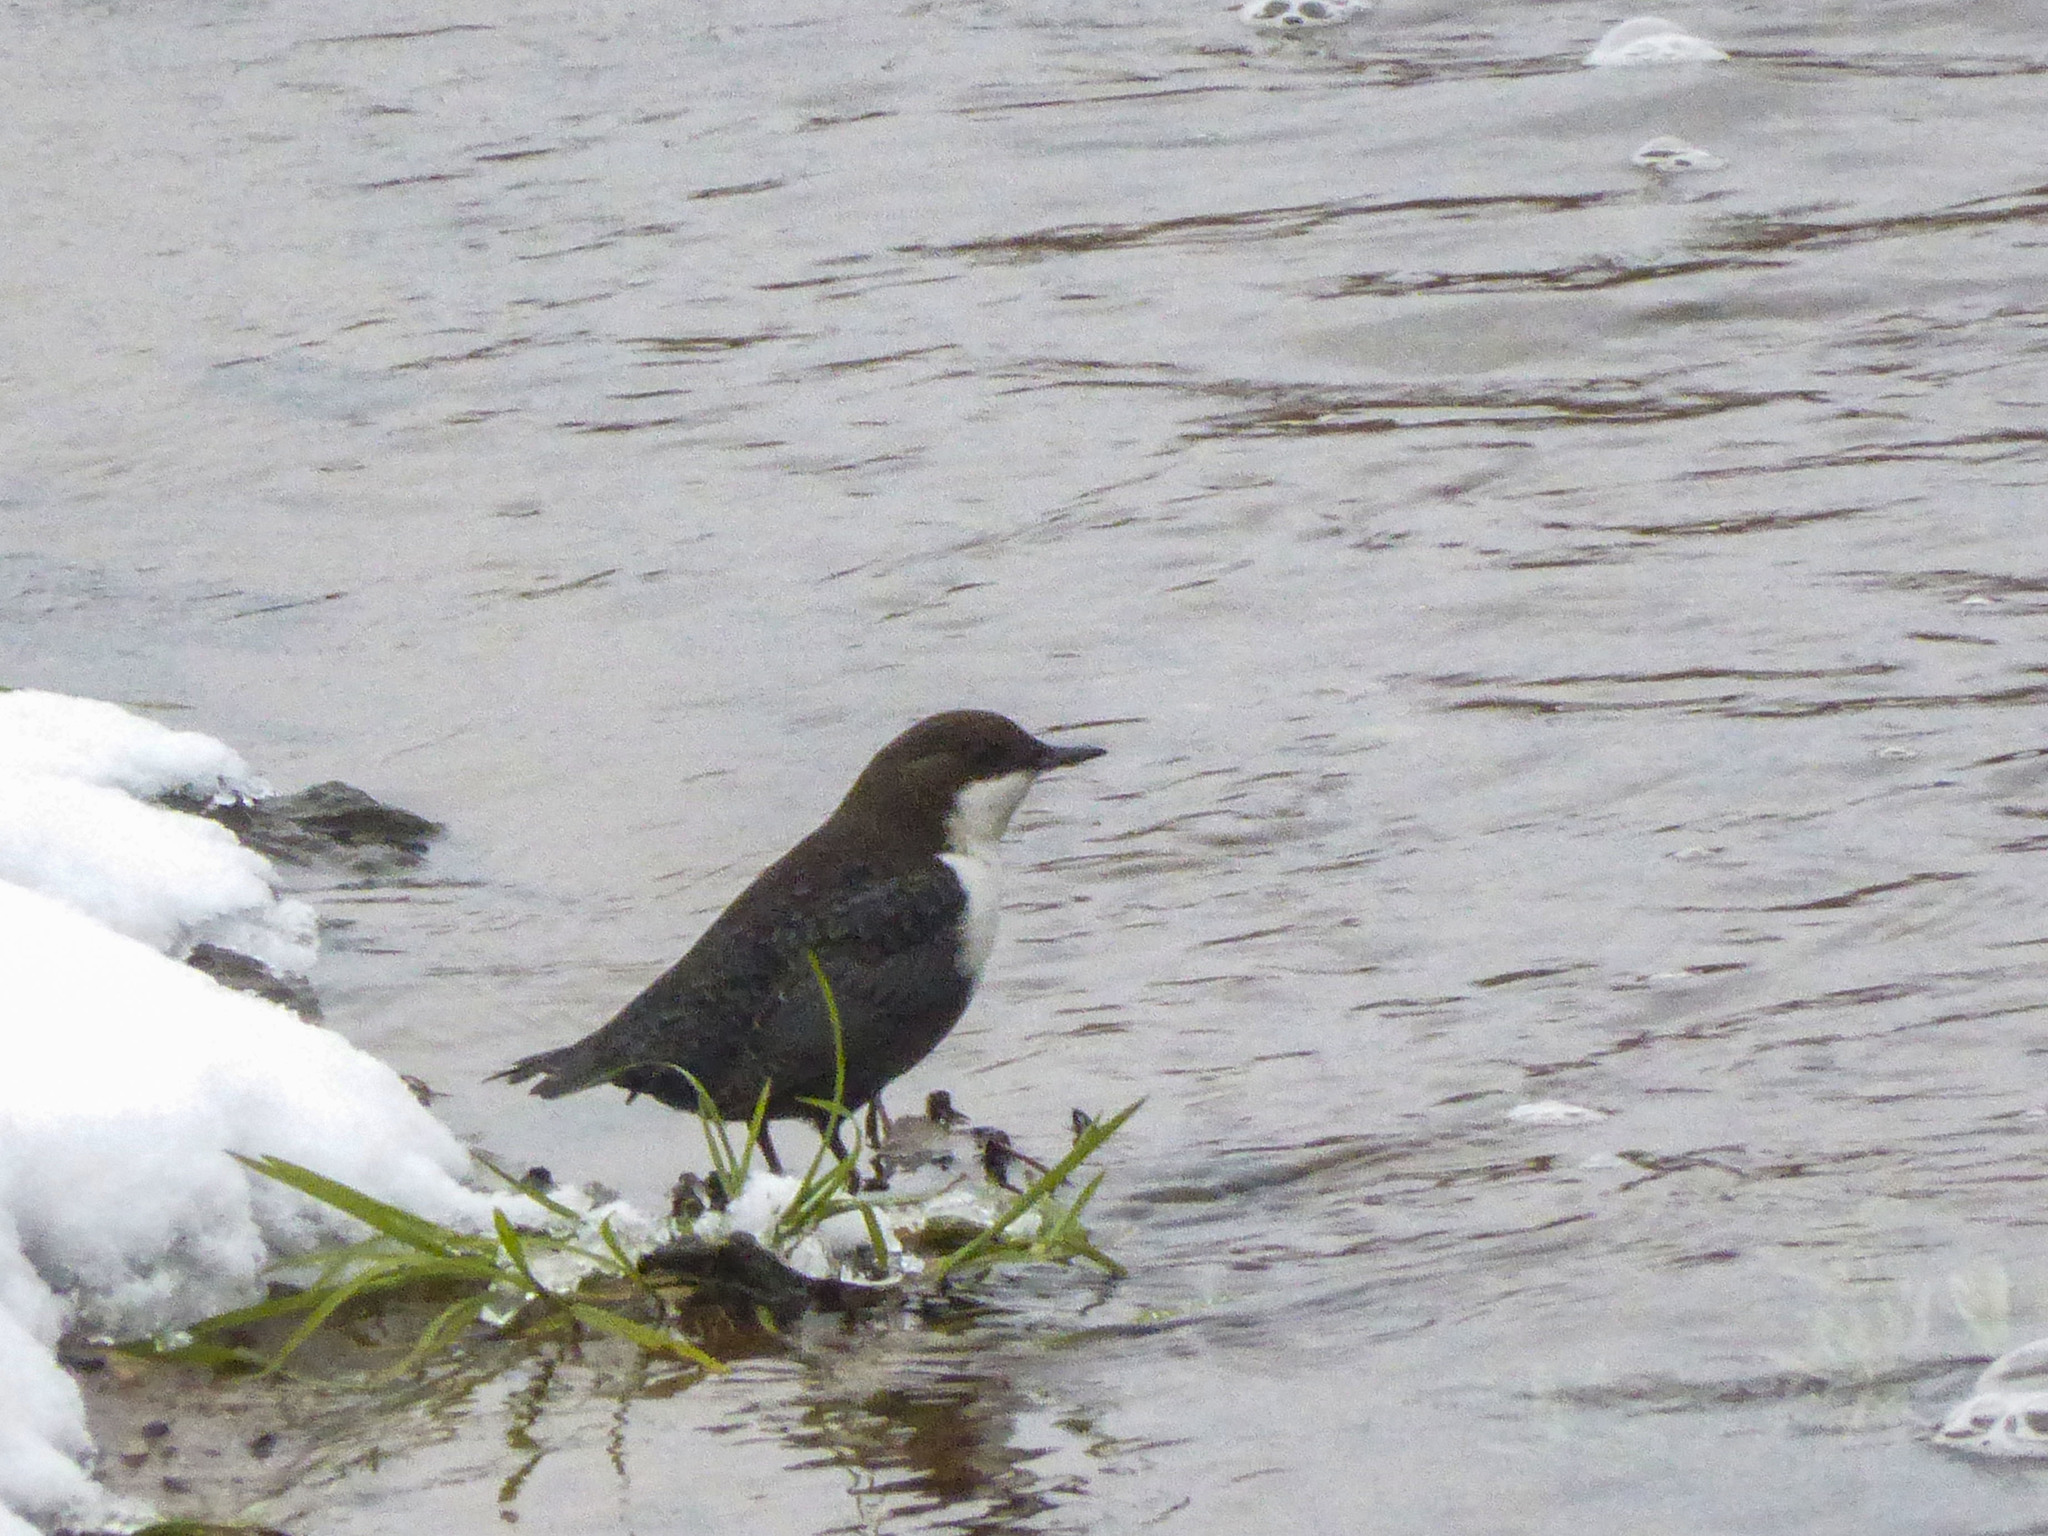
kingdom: Animalia
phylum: Chordata
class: Aves
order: Passeriformes
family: Cinclidae
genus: Cinclus
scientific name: Cinclus cinclus
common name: White-throated dipper
